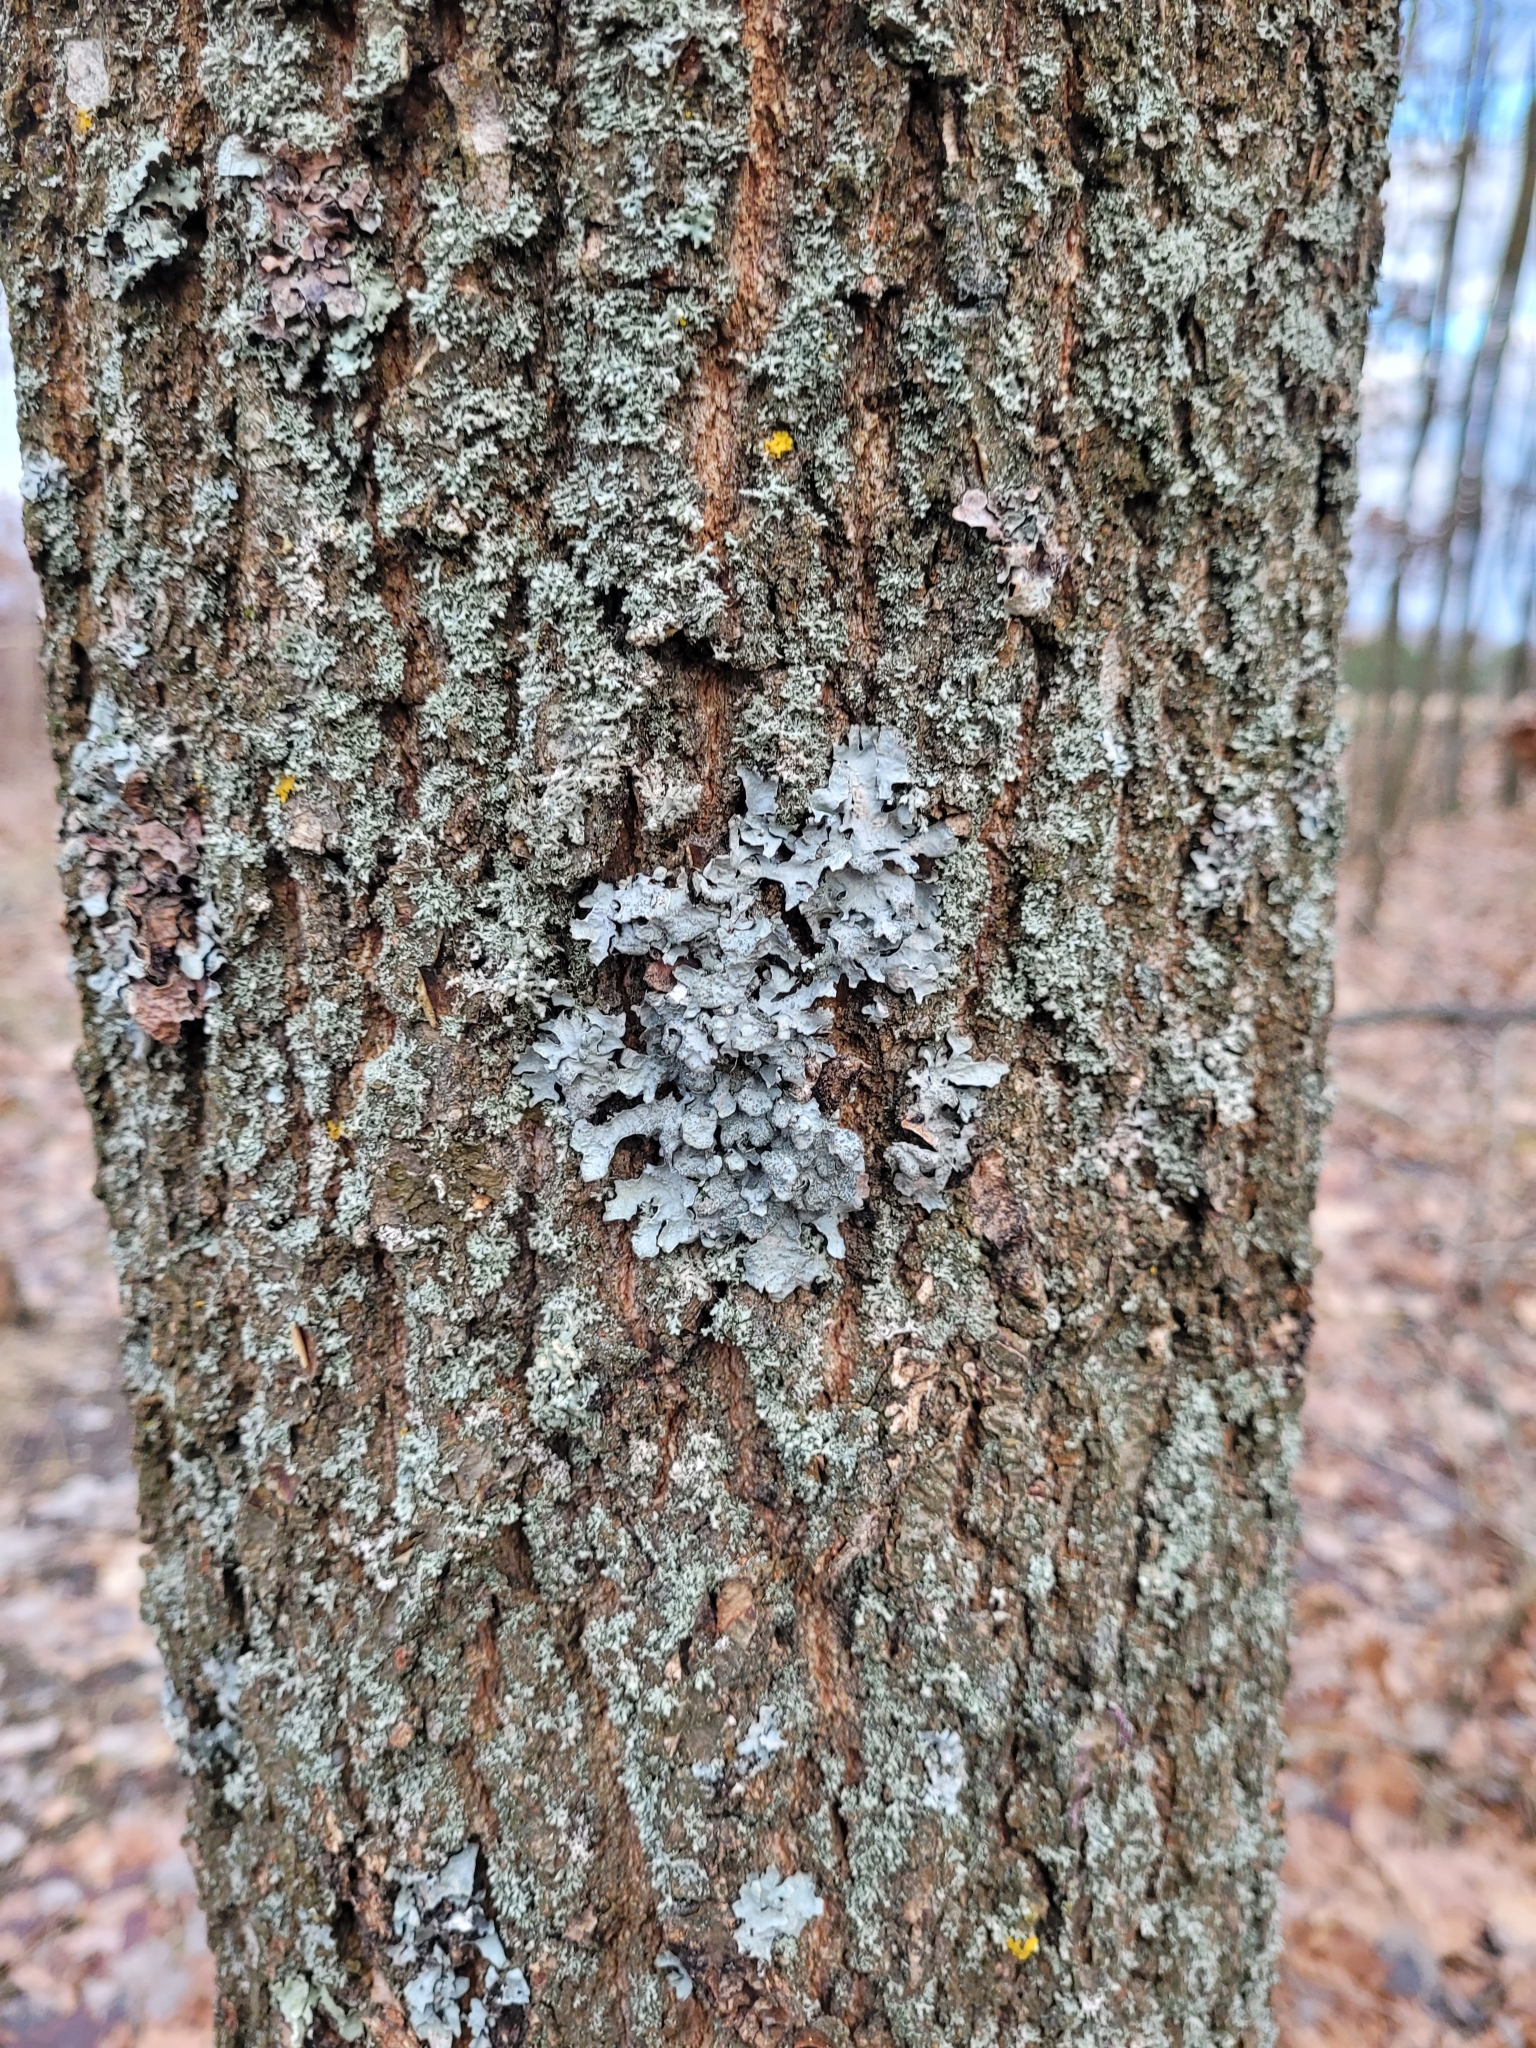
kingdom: Fungi
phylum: Ascomycota
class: Lecanoromycetes
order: Lecanorales
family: Parmeliaceae
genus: Parmelia
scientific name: Parmelia sulcata
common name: Netted shield lichen
